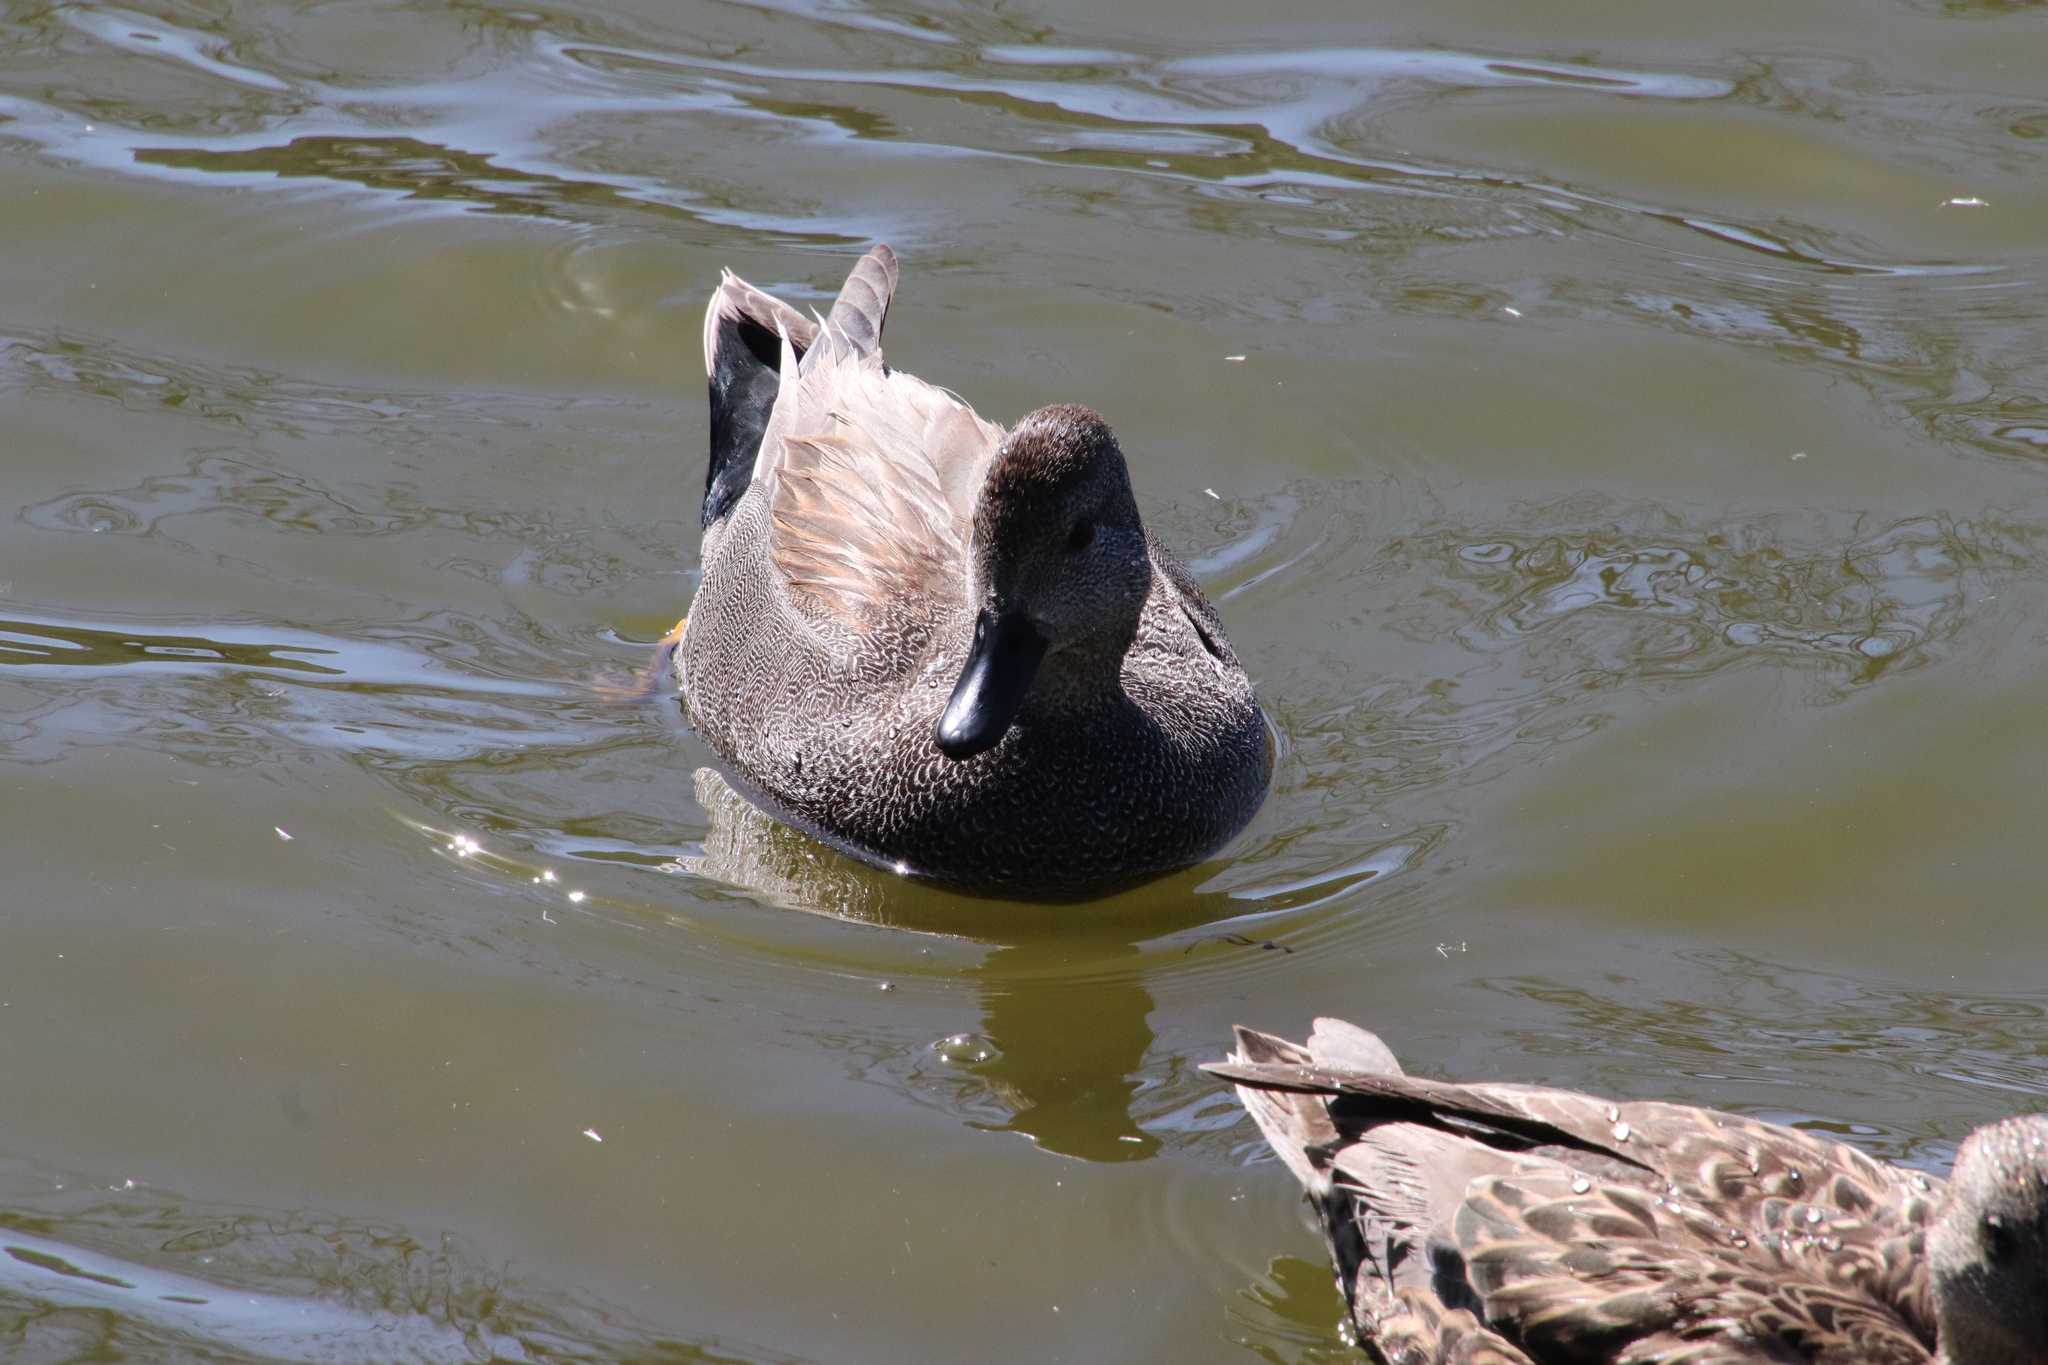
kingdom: Animalia
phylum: Chordata
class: Aves
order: Anseriformes
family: Anatidae
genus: Mareca
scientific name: Mareca strepera
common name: Gadwall
